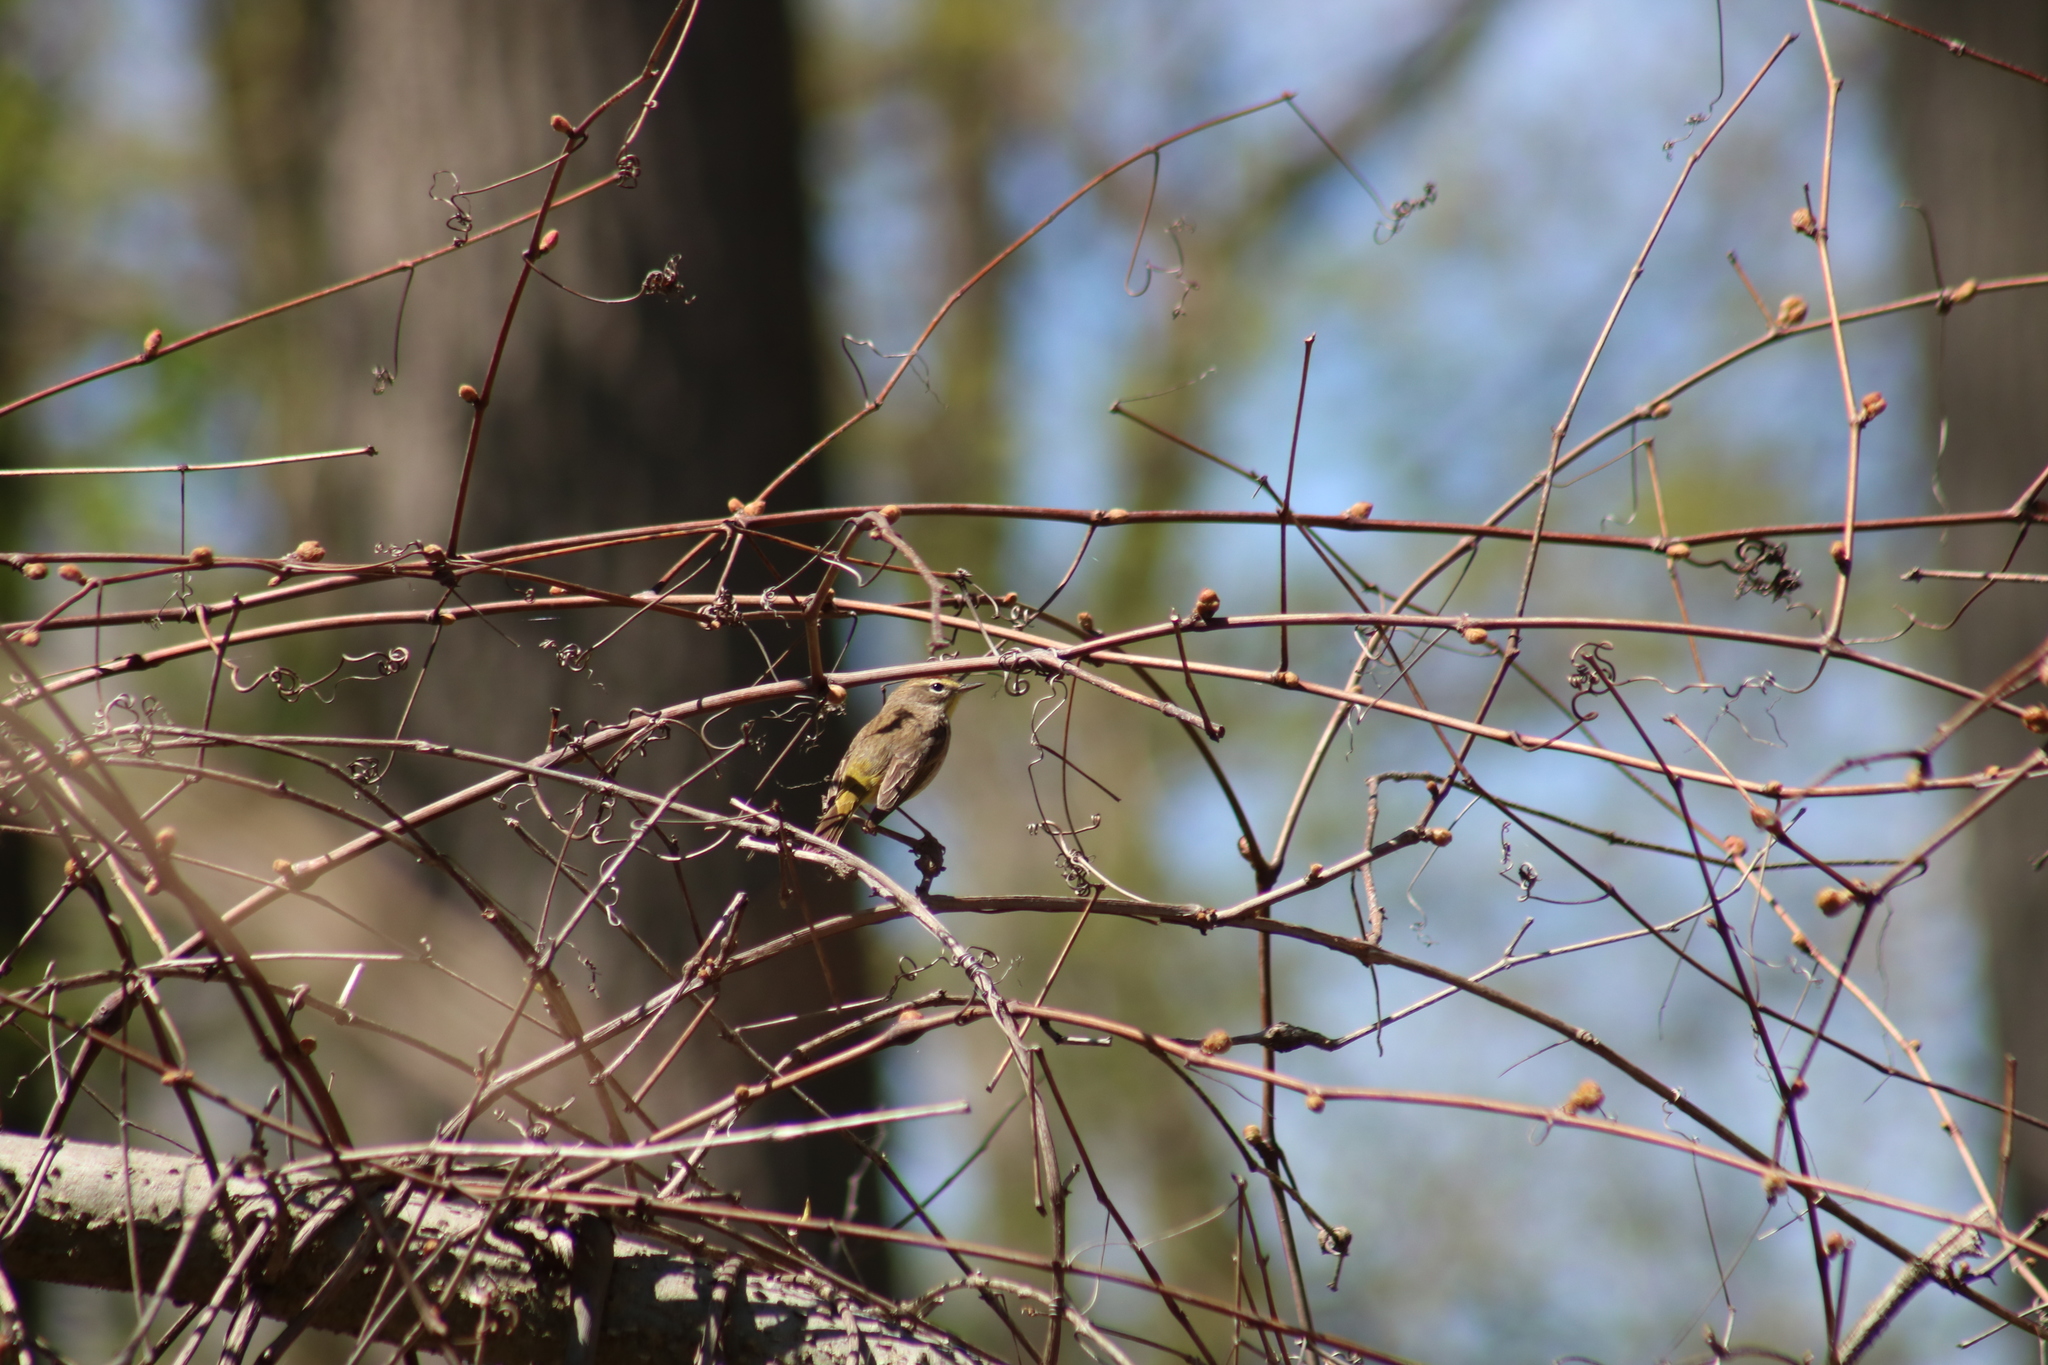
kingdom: Animalia
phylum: Chordata
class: Aves
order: Passeriformes
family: Parulidae
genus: Setophaga
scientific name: Setophaga palmarum
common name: Palm warbler
